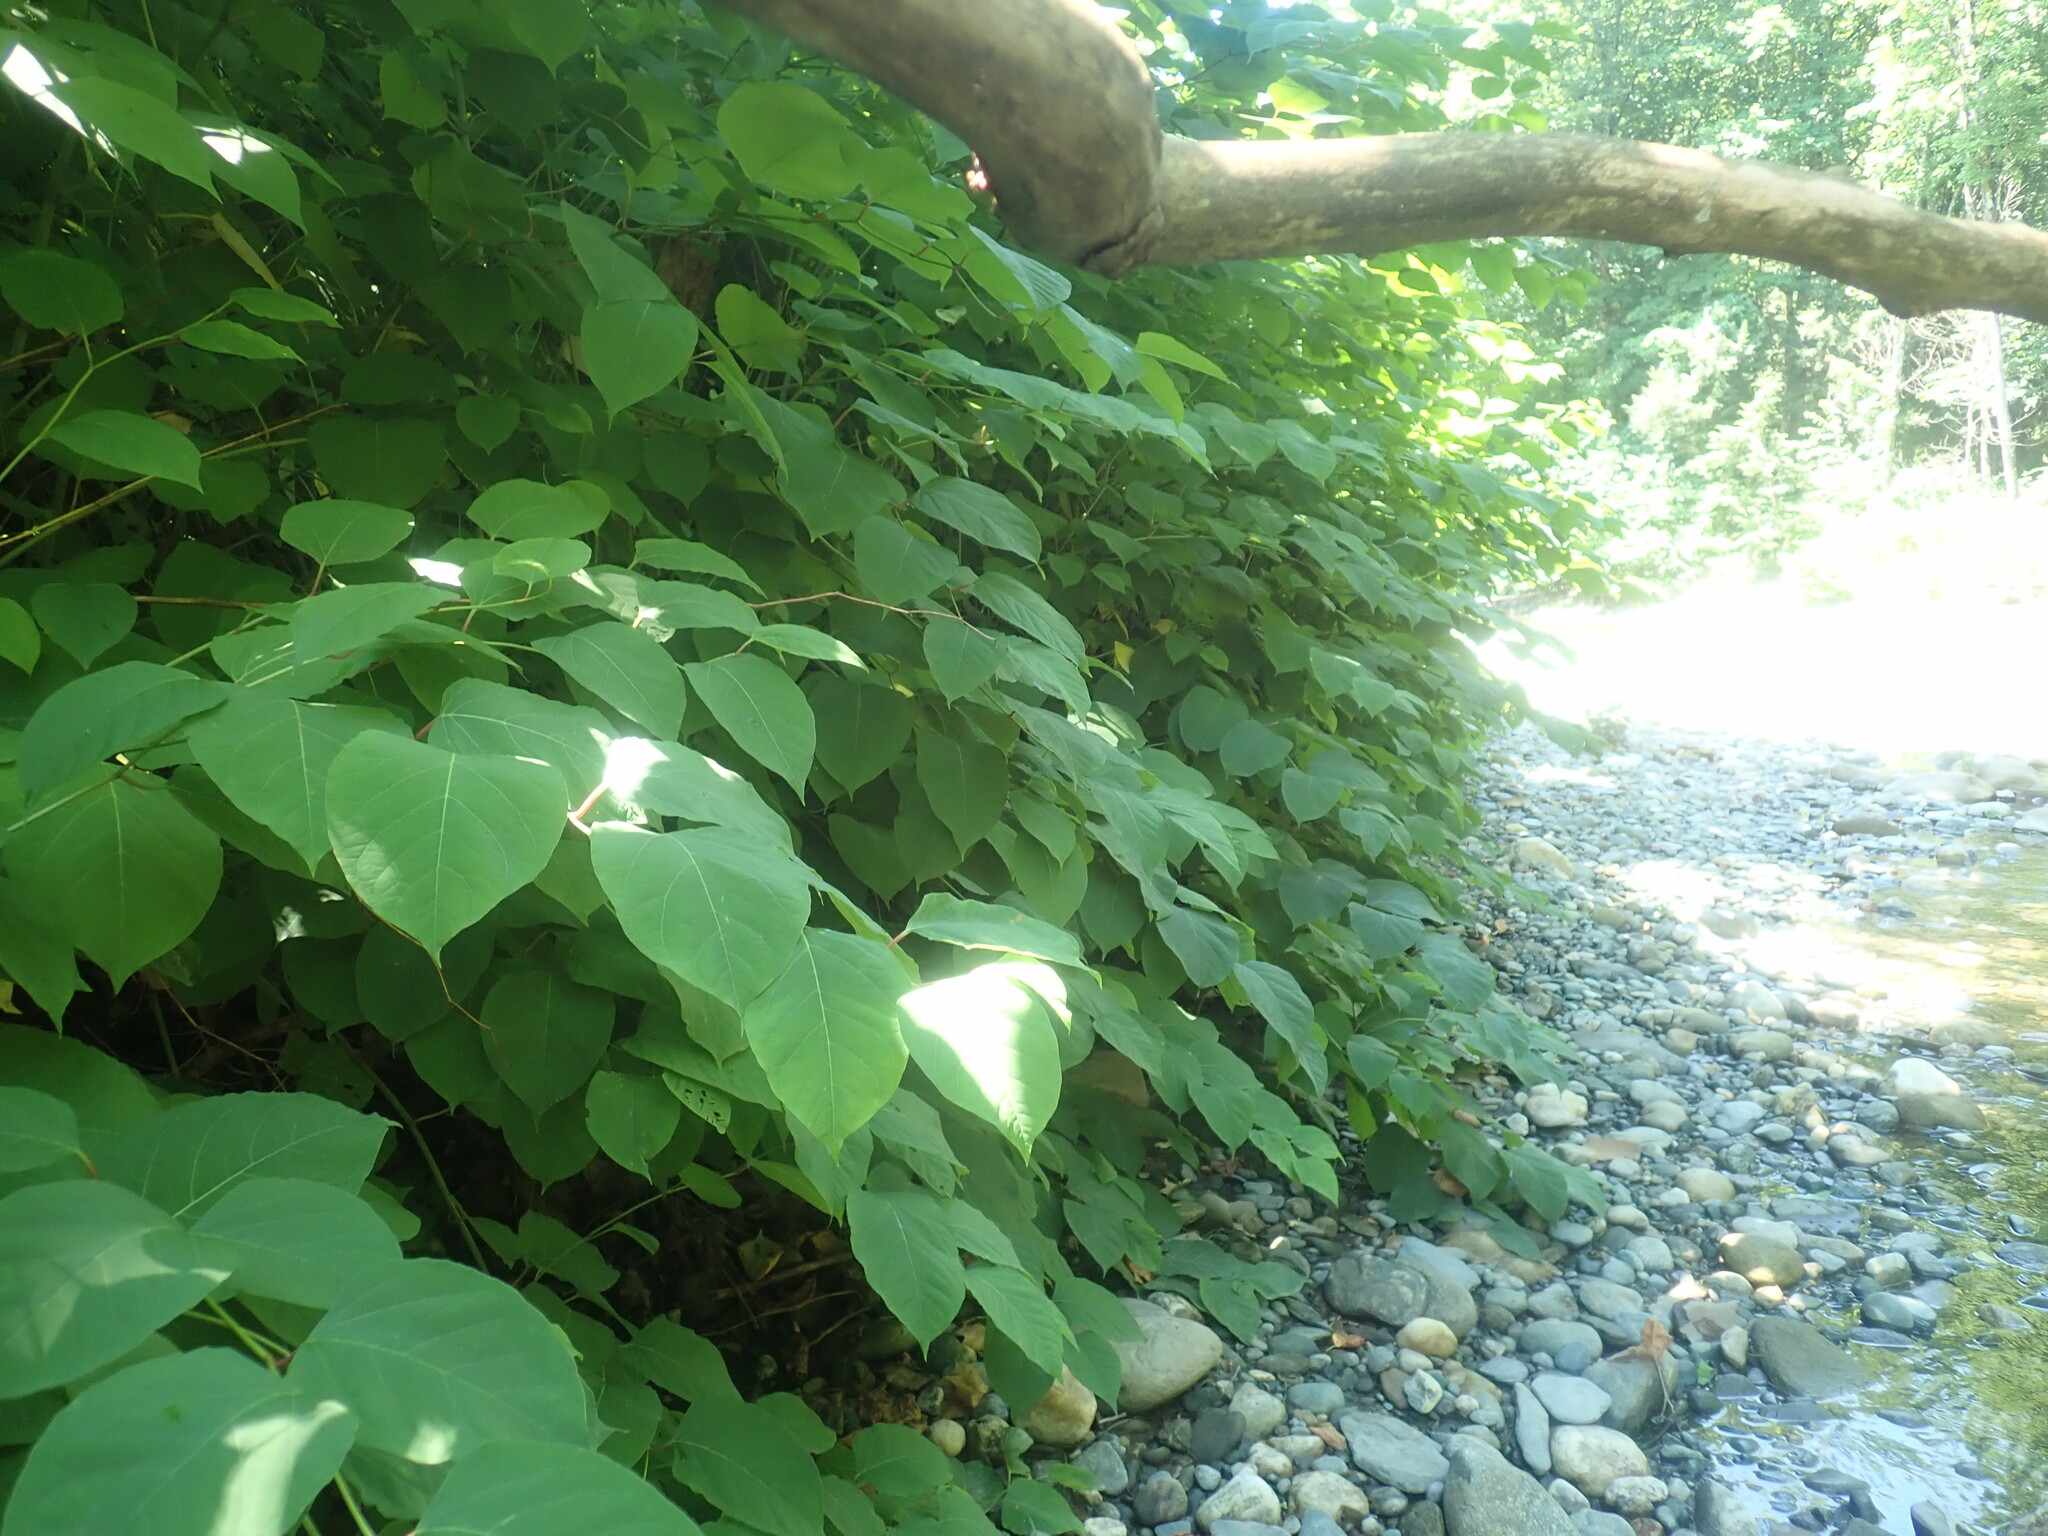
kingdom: Plantae
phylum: Tracheophyta
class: Magnoliopsida
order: Caryophyllales
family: Polygonaceae
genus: Reynoutria
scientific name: Reynoutria japonica
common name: Japanese knotweed
